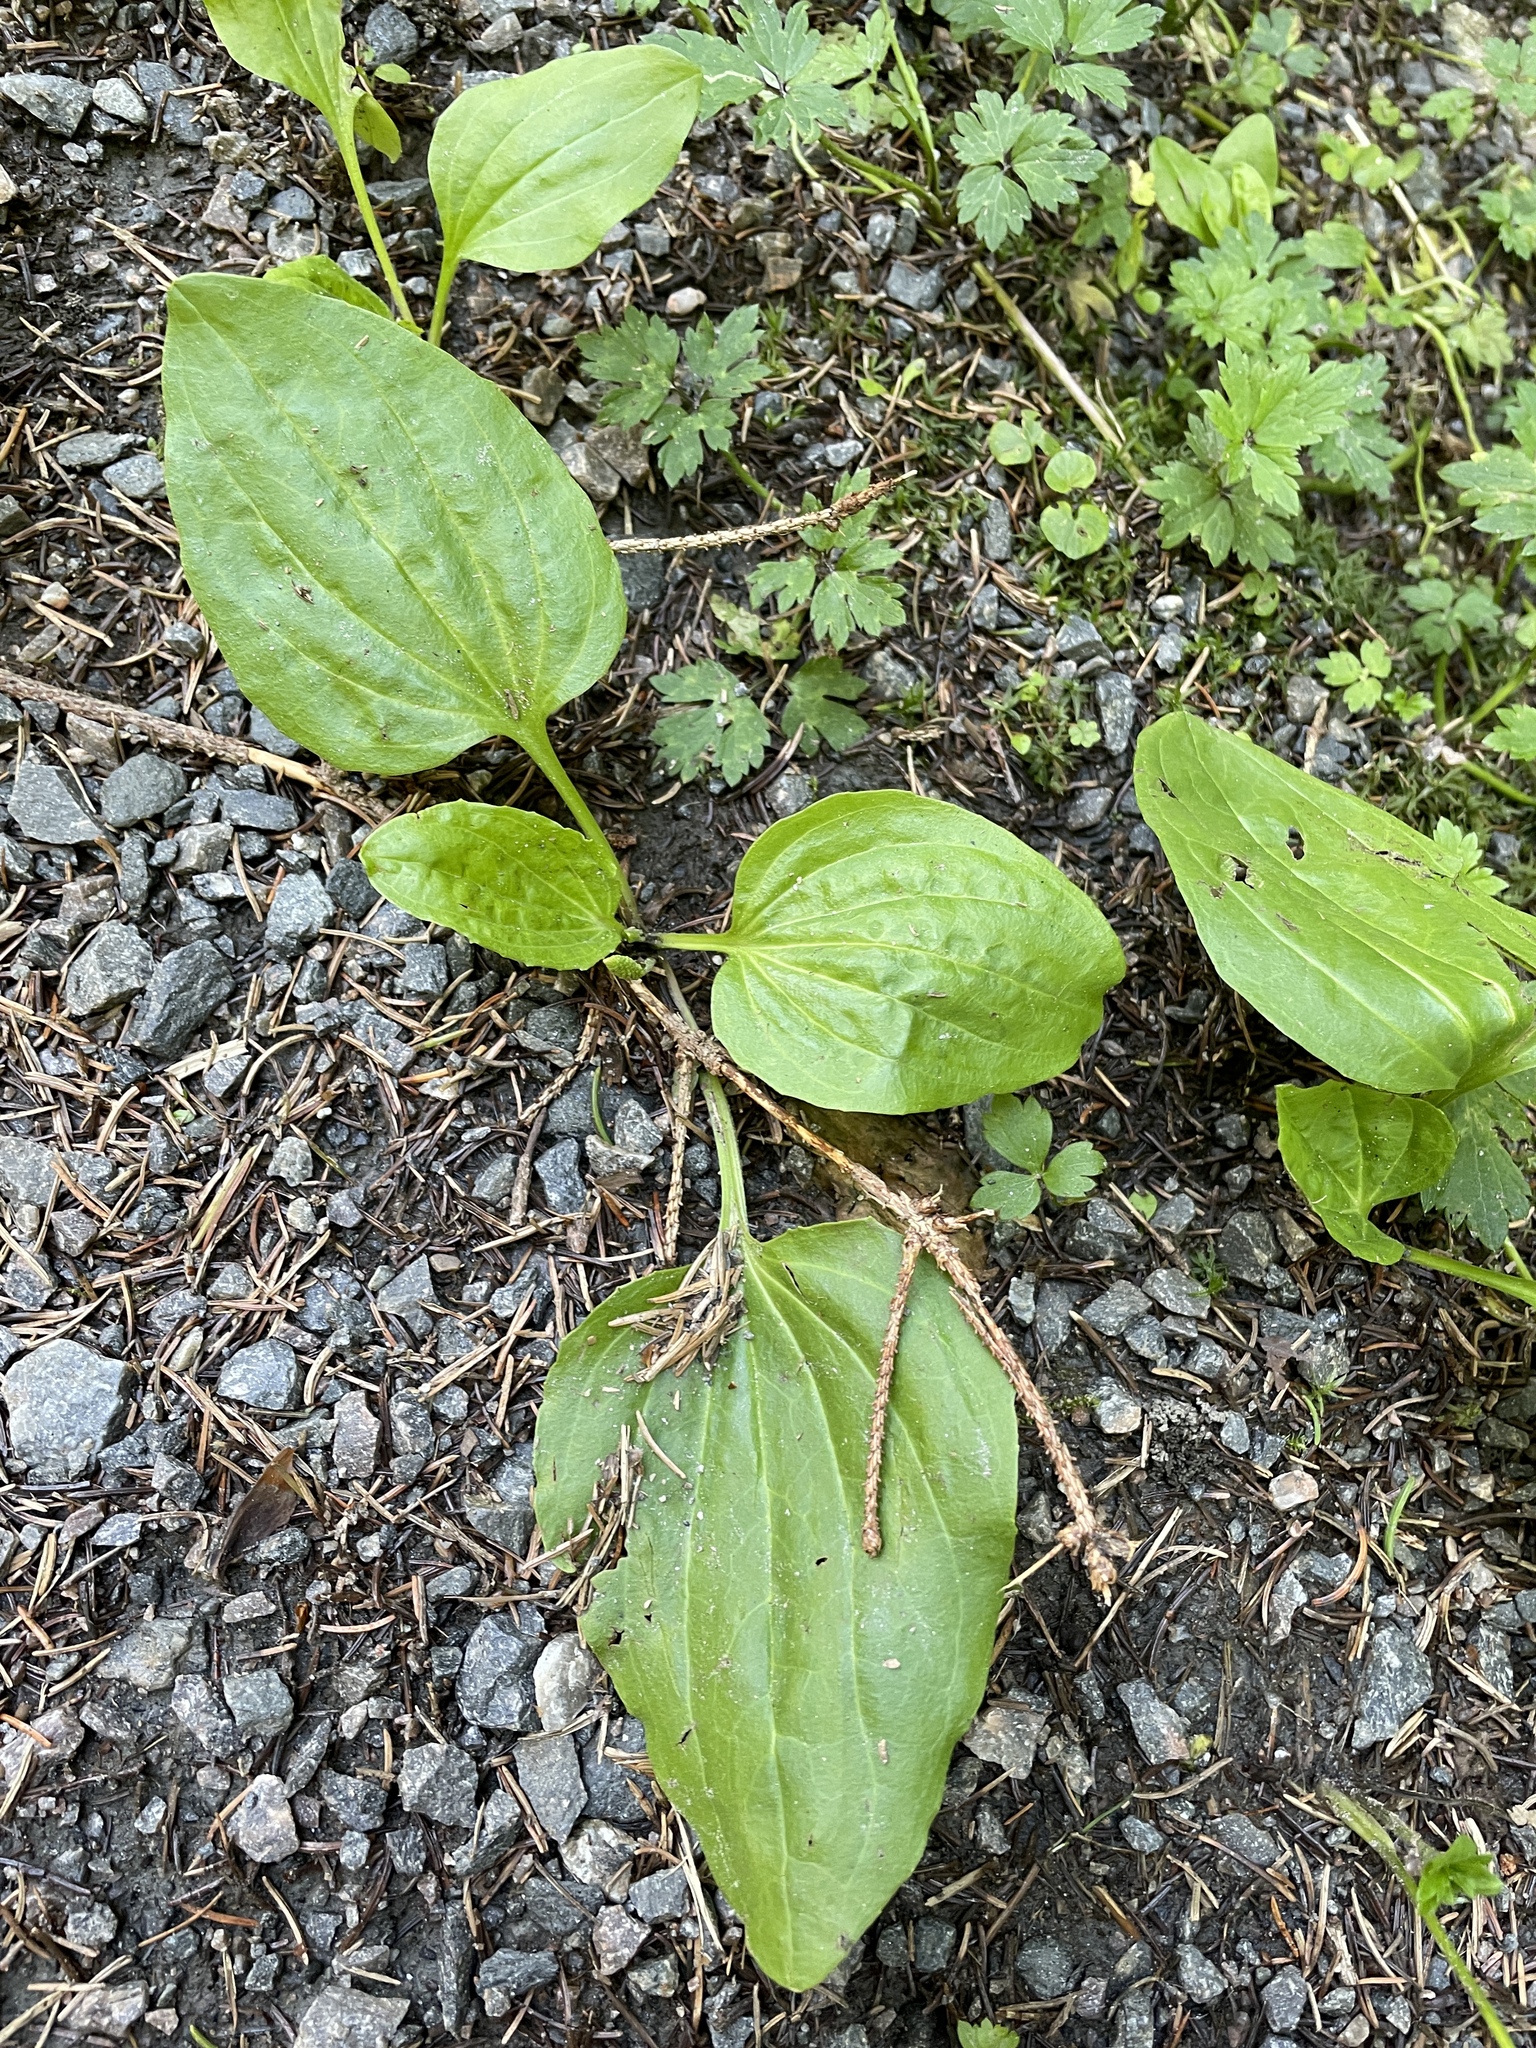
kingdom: Plantae
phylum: Tracheophyta
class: Magnoliopsida
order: Lamiales
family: Plantaginaceae
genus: Plantago
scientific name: Plantago major
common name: Common plantain
